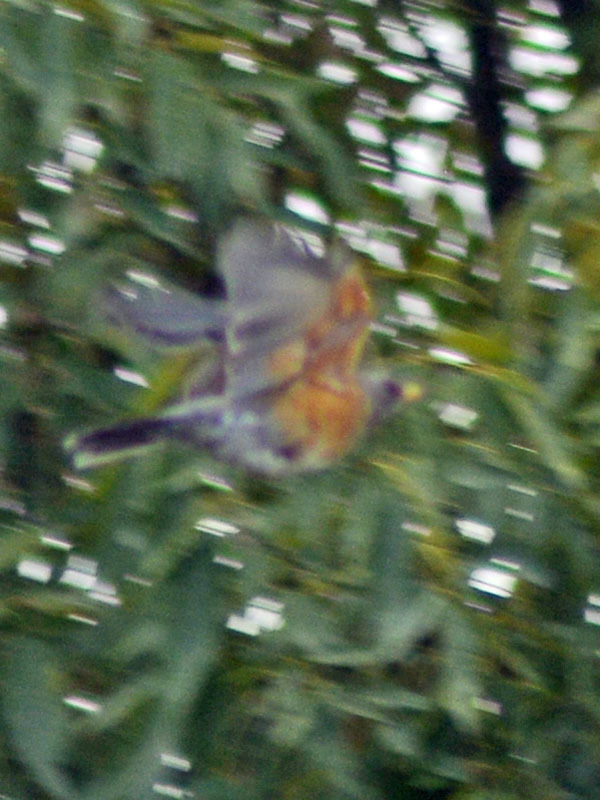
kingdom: Animalia
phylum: Chordata
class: Aves
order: Passeriformes
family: Turdidae
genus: Turdus
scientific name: Turdus rufopalliatus
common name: Rufous-backed robin
